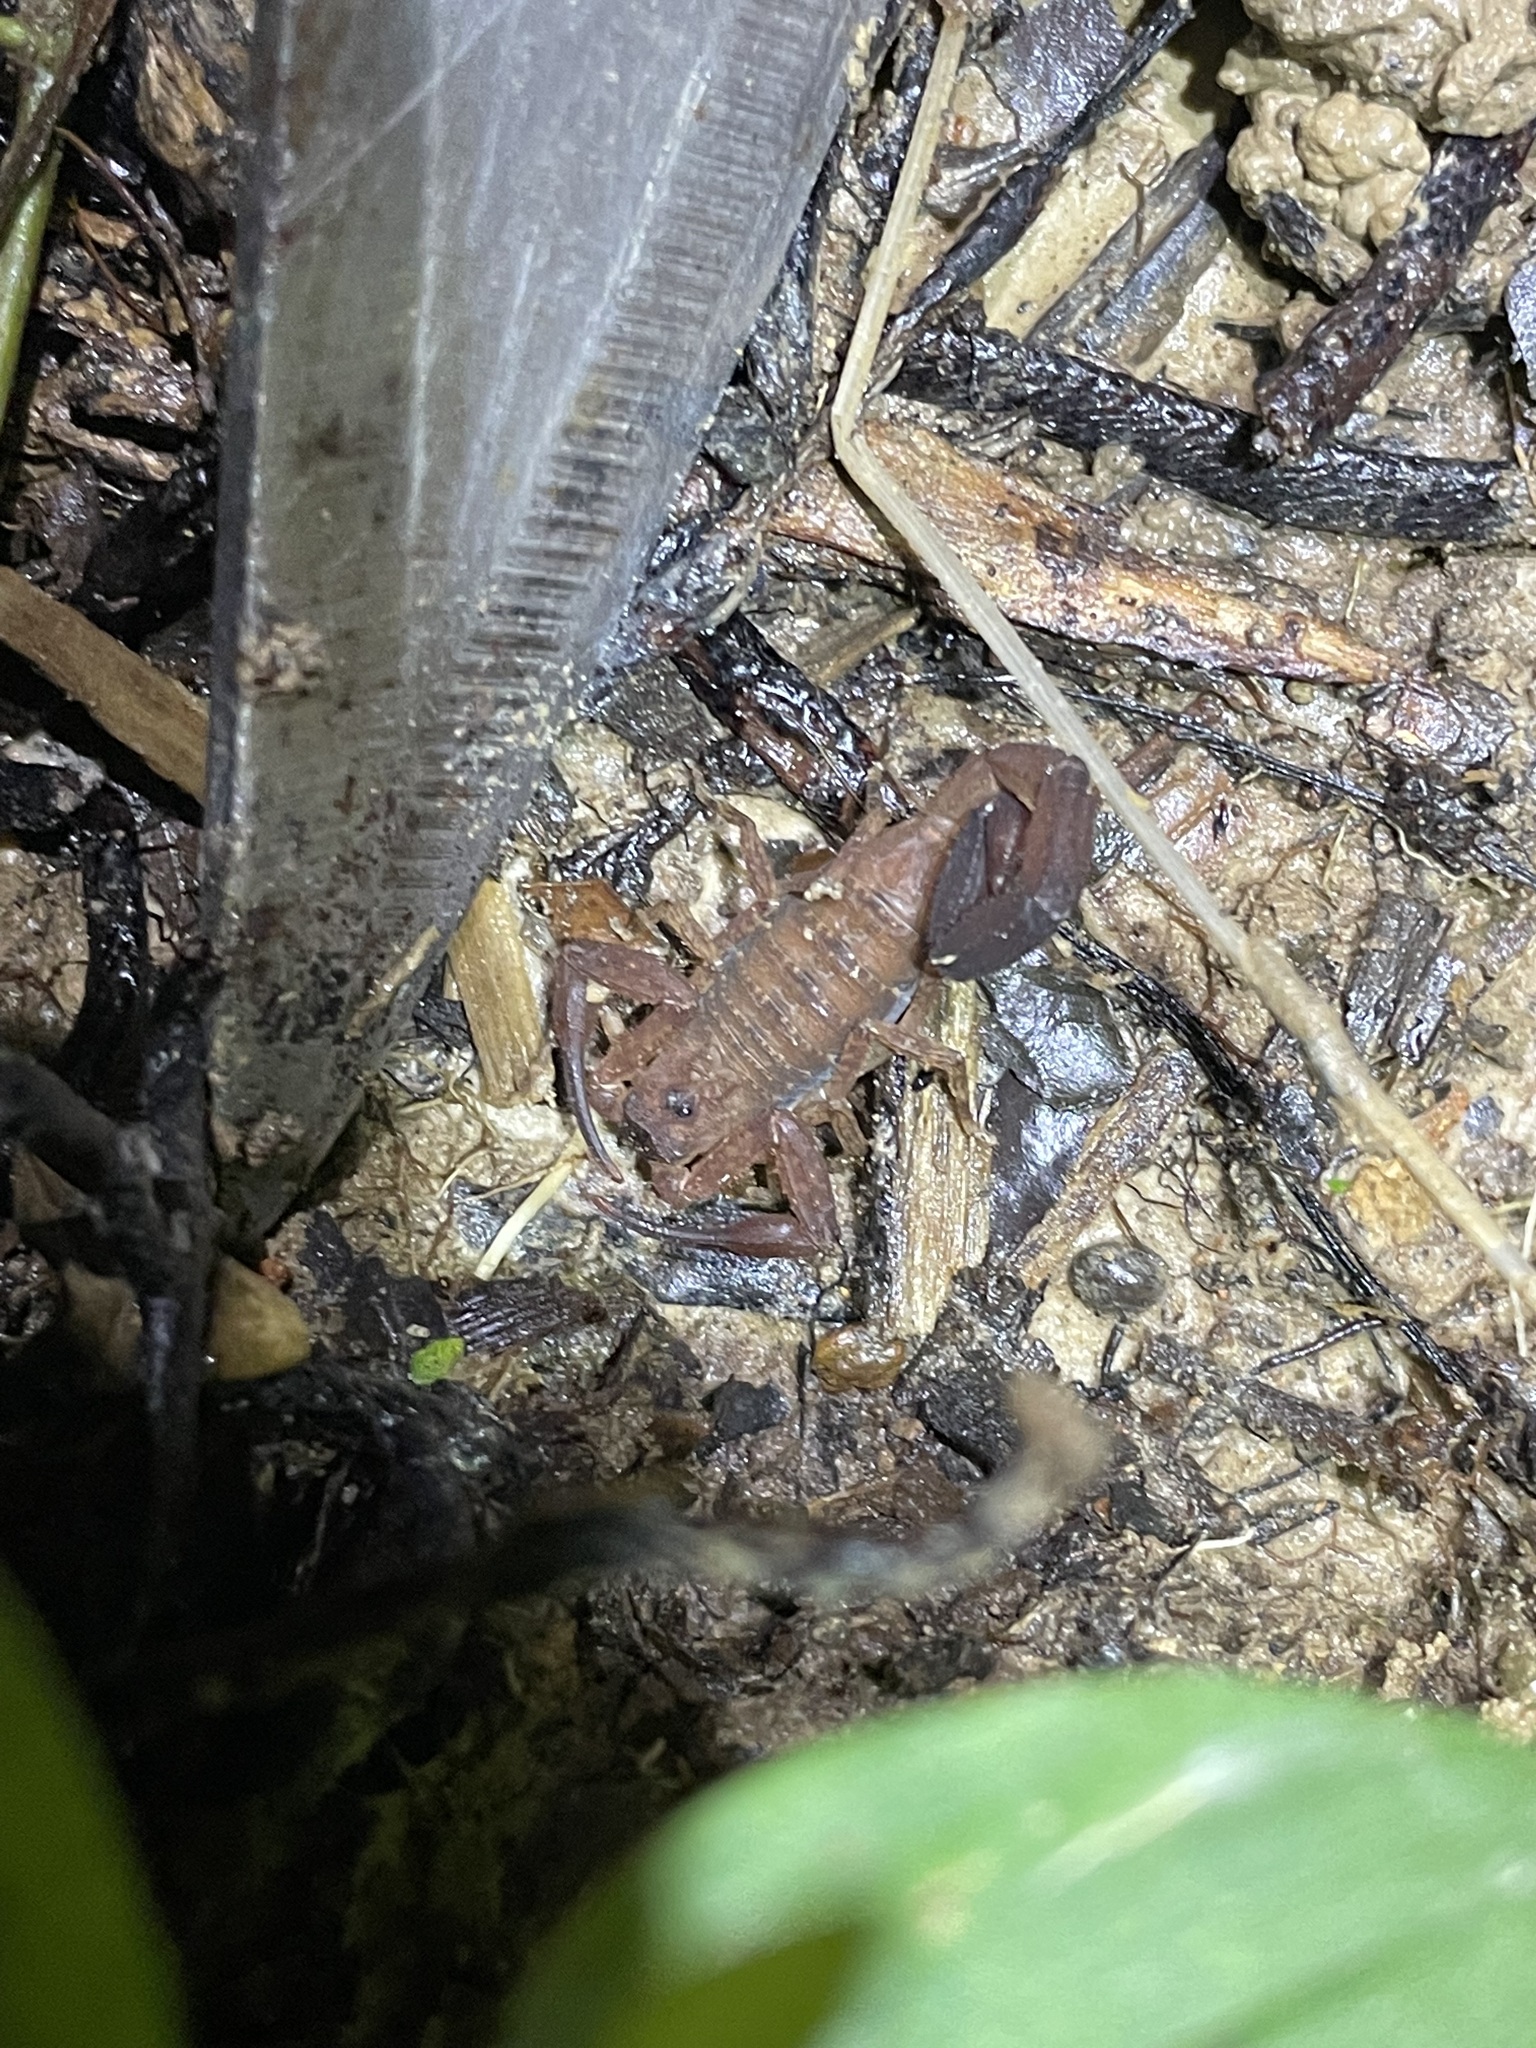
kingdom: Animalia
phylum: Arthropoda
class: Arachnida
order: Scorpiones
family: Buthidae
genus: Tityus
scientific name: Tityus trinitatis
